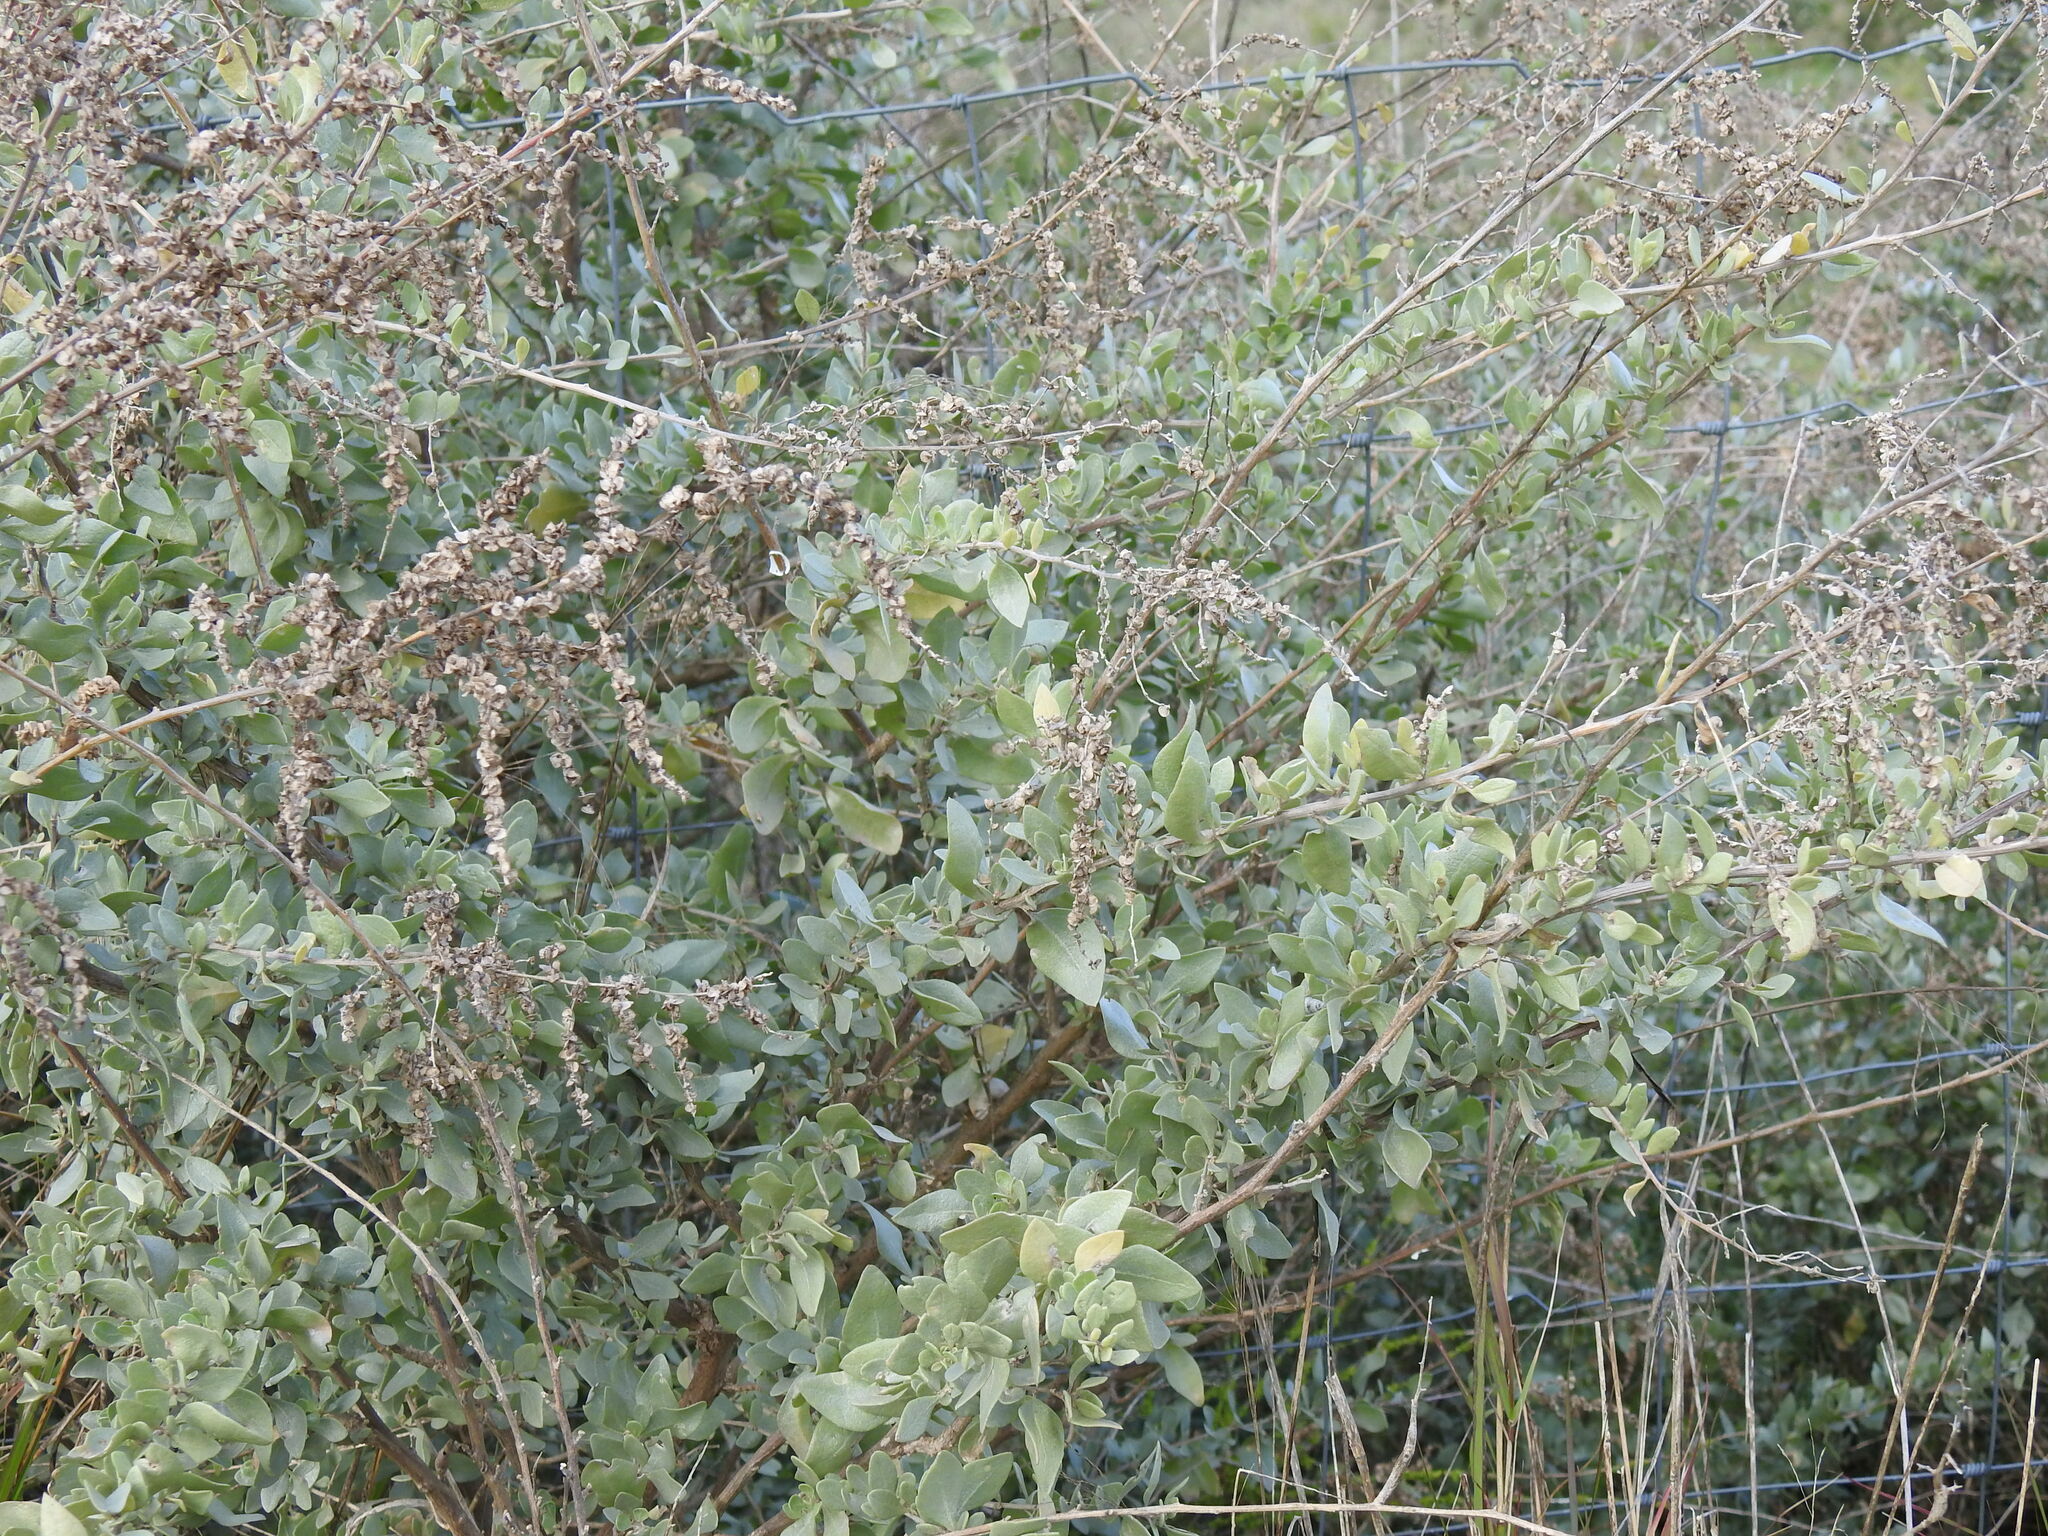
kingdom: Plantae
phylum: Tracheophyta
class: Magnoliopsida
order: Caryophyllales
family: Amaranthaceae
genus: Atriplex
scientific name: Atriplex halimus
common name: Shrubby orache
